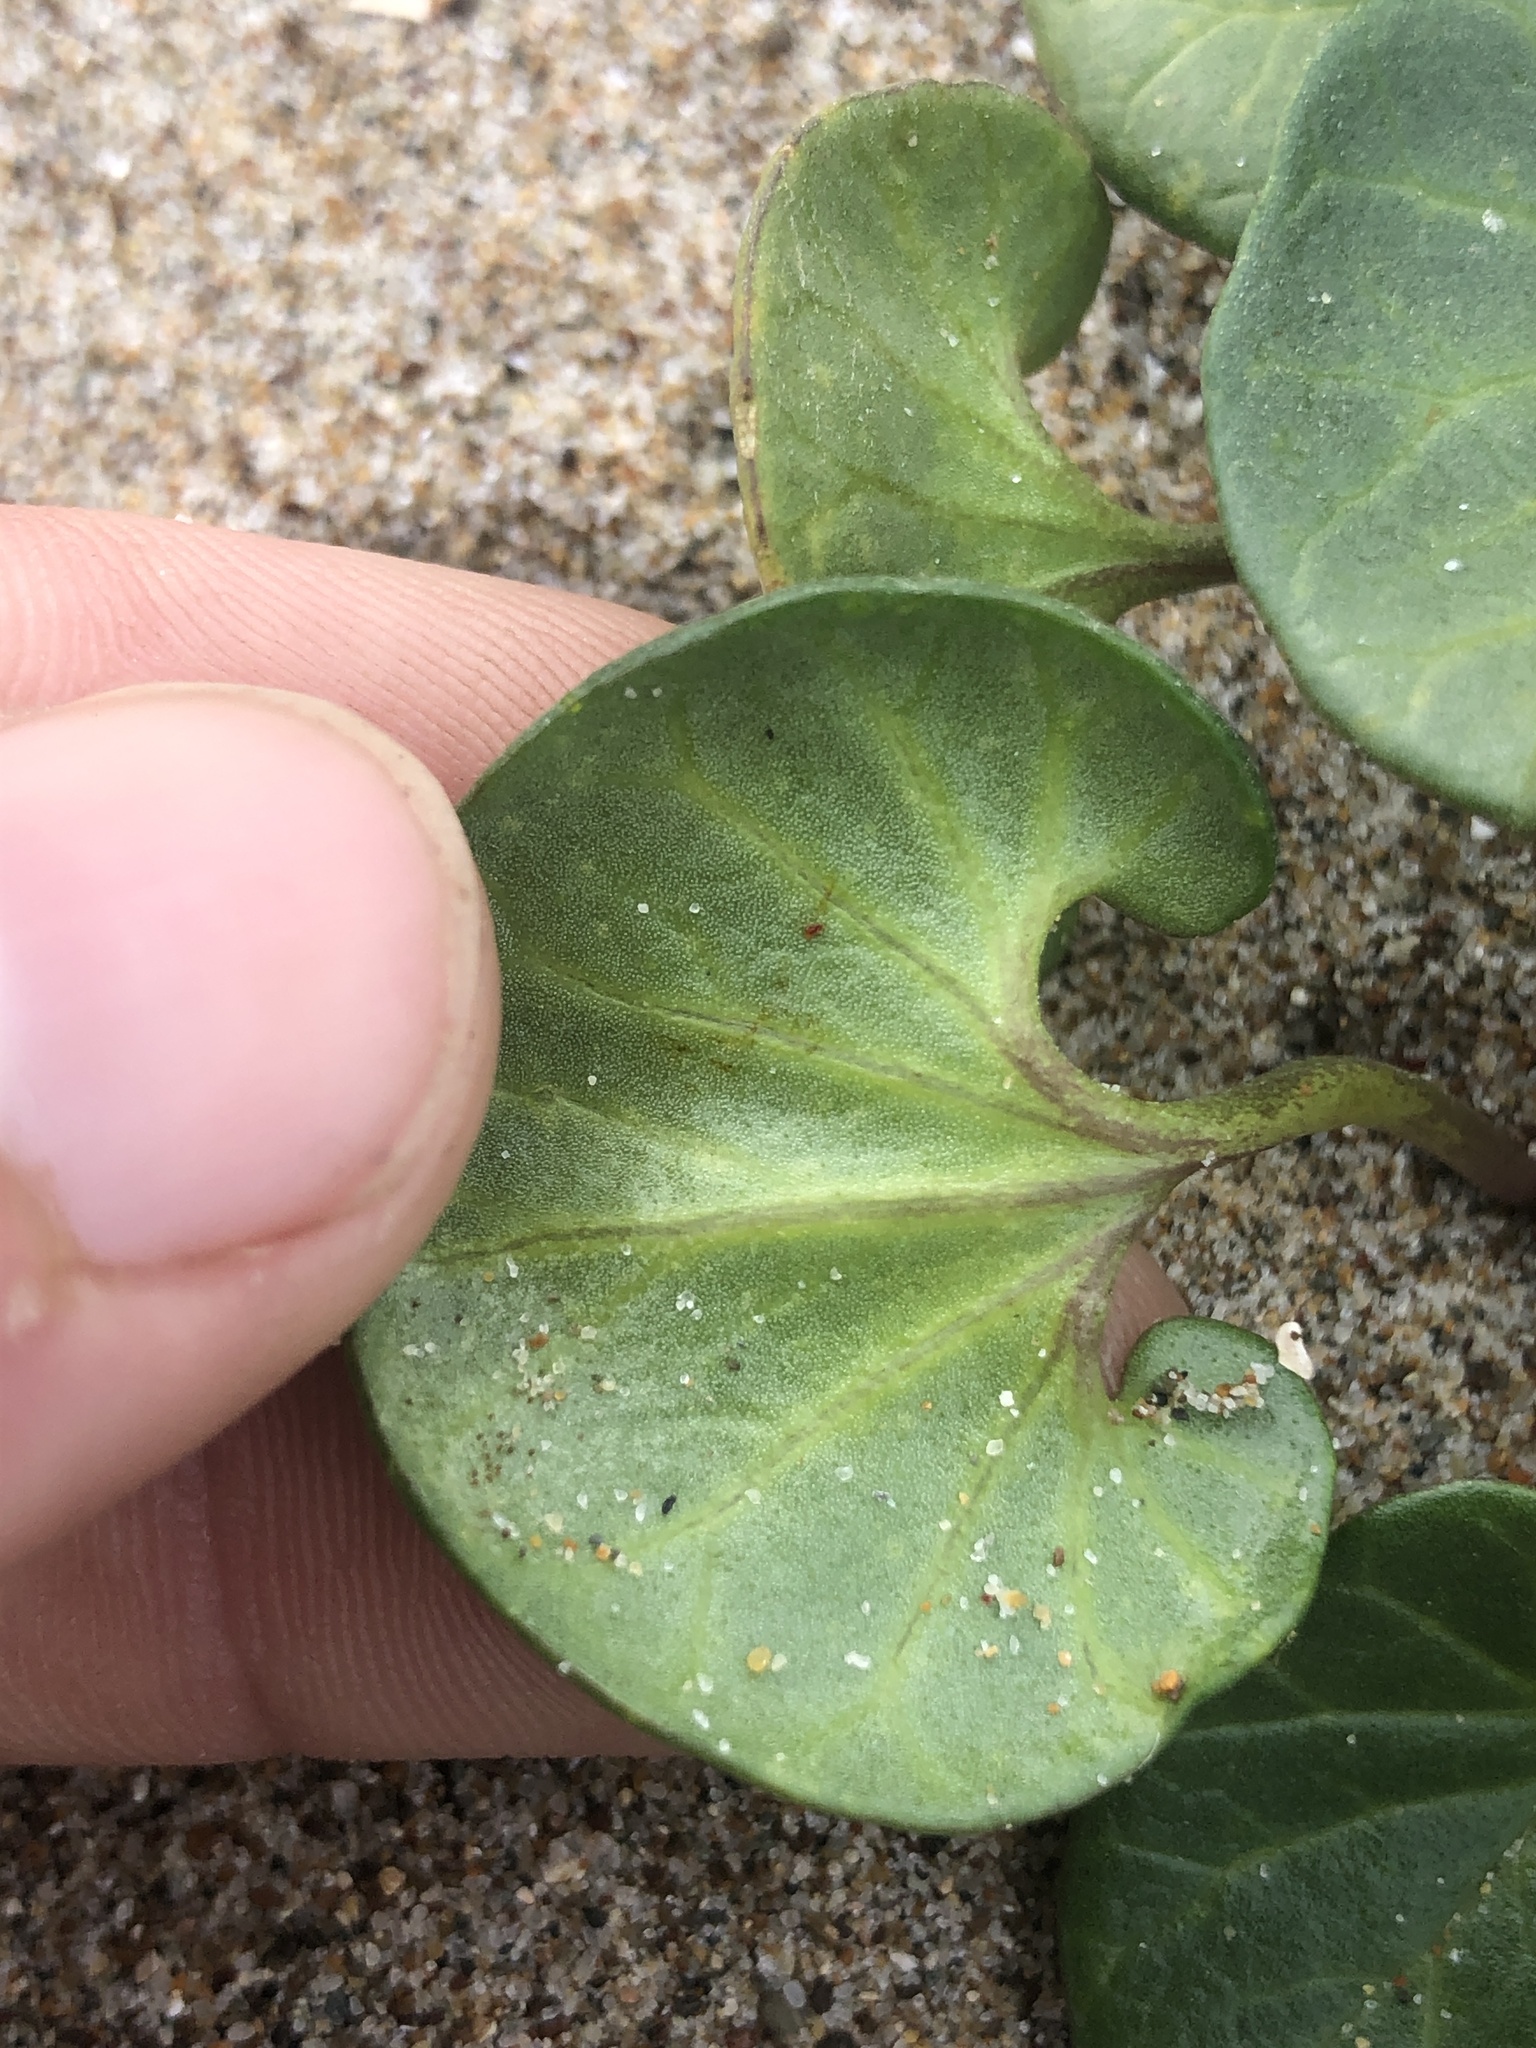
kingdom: Plantae
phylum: Tracheophyta
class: Magnoliopsida
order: Solanales
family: Convolvulaceae
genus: Calystegia
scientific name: Calystegia soldanella
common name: Sea bindweed
